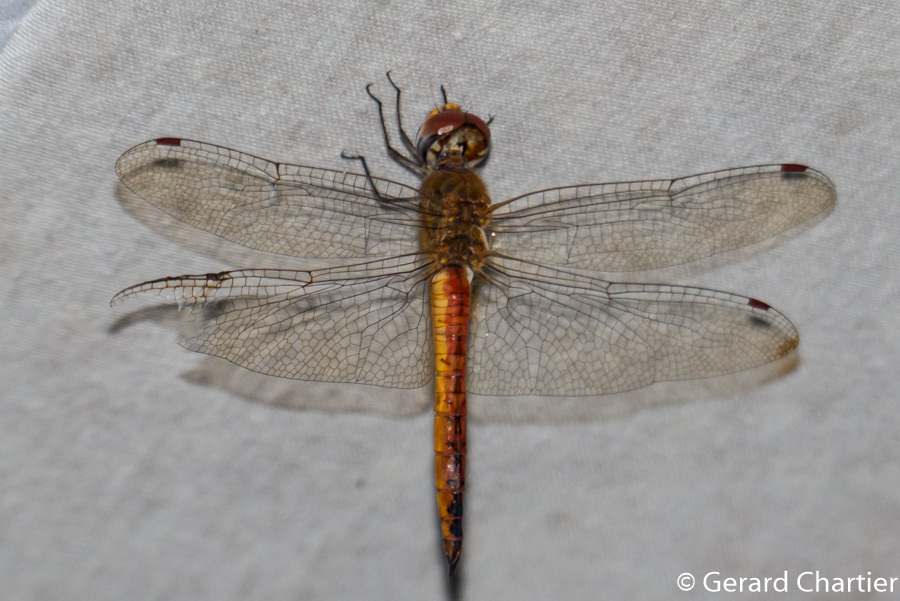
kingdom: Animalia
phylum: Arthropoda
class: Insecta
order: Odonata
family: Libellulidae
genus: Pantala
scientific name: Pantala flavescens
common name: Wandering glider
